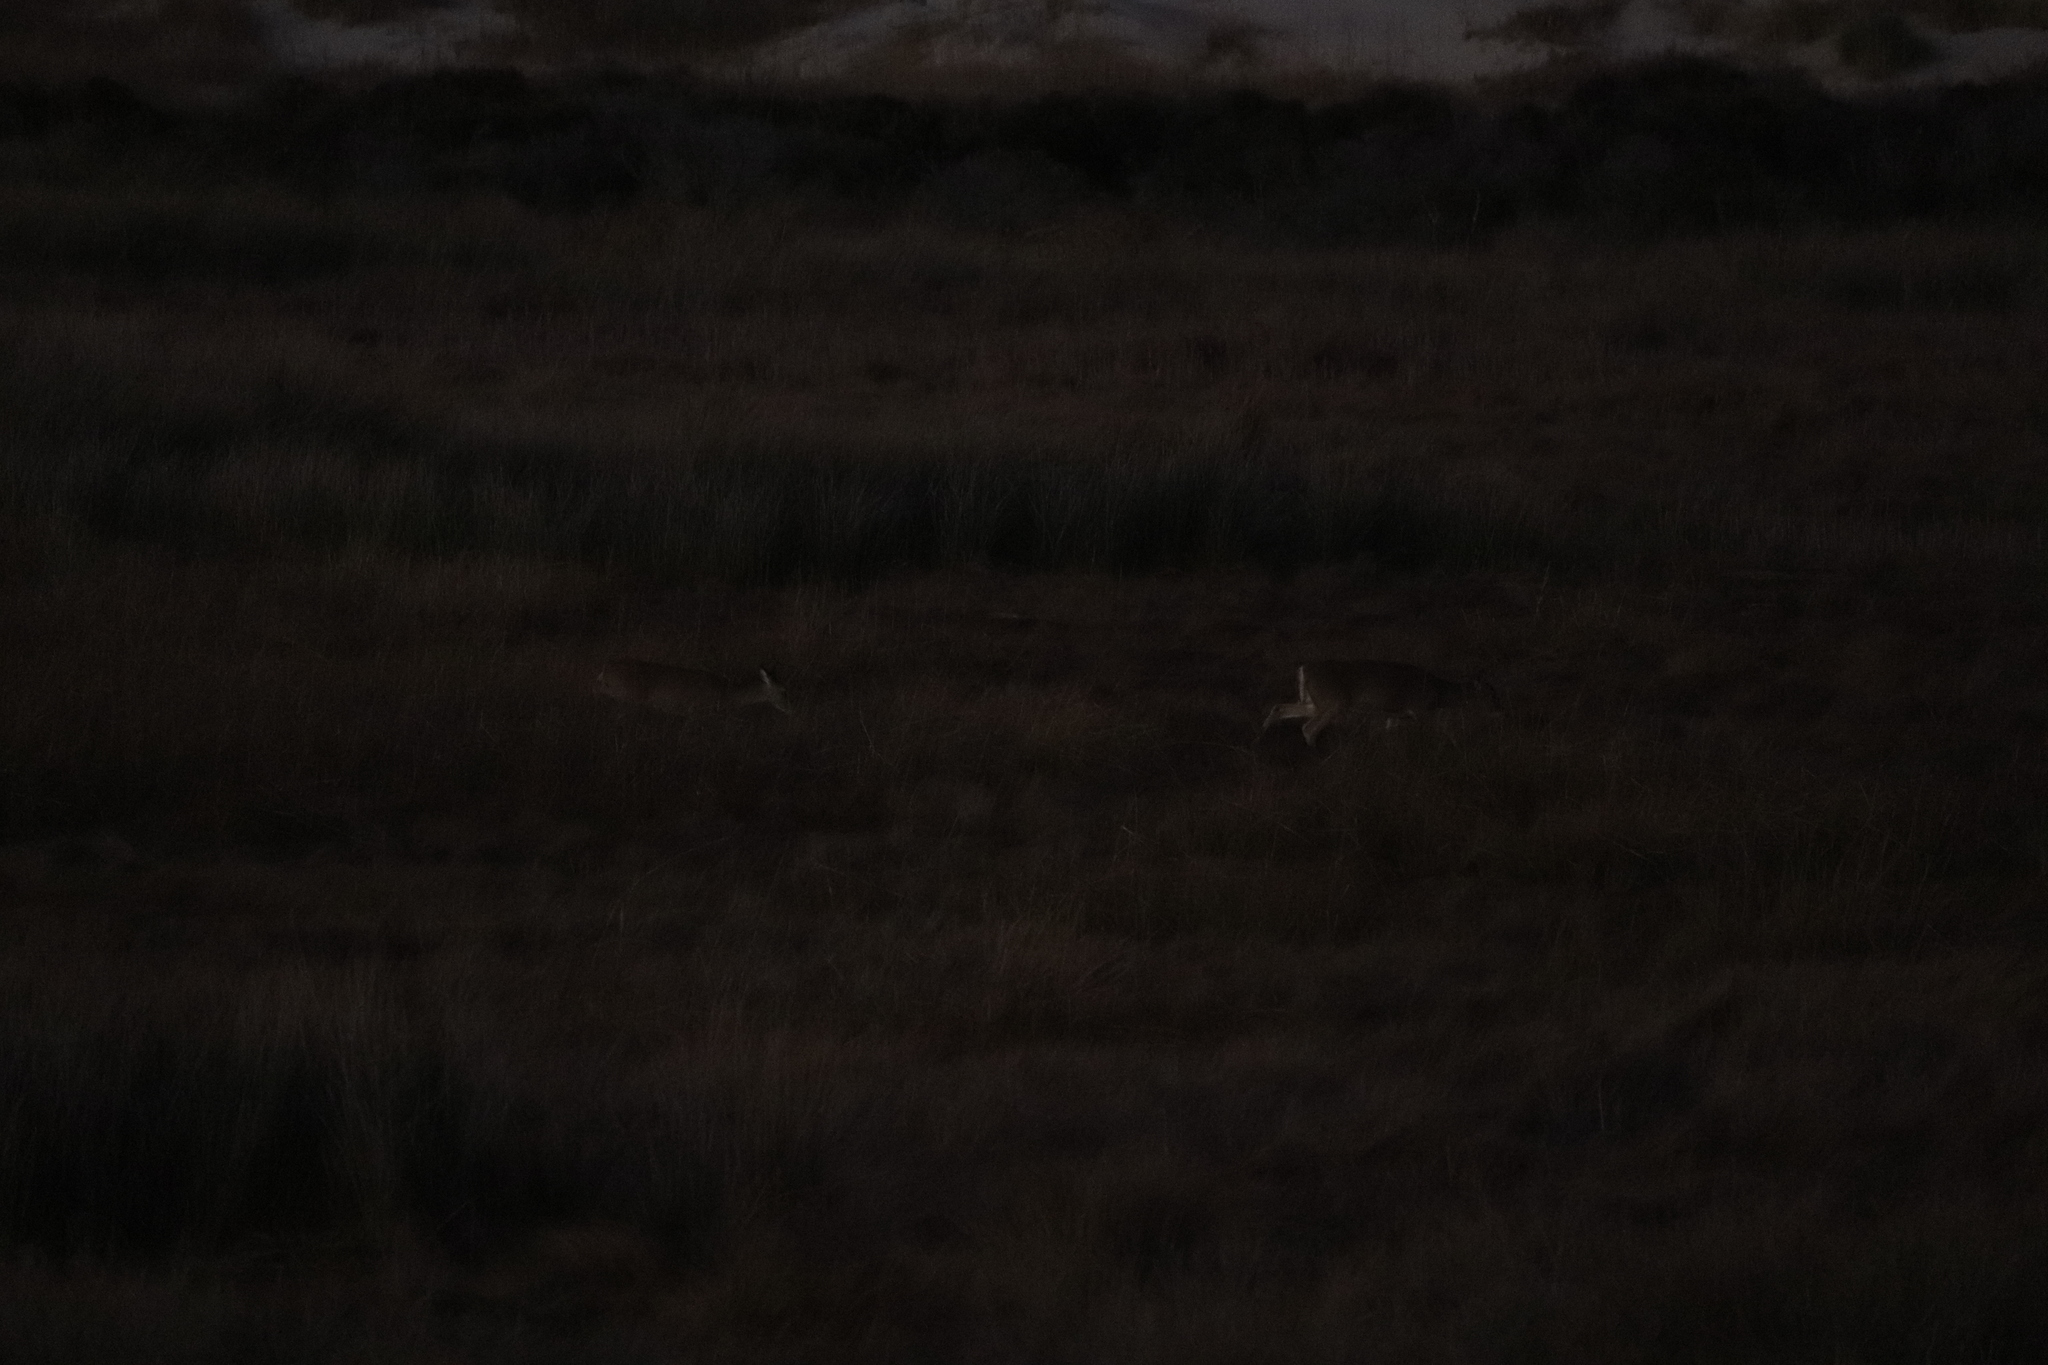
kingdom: Animalia
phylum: Chordata
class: Mammalia
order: Artiodactyla
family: Cervidae
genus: Odocoileus
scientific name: Odocoileus virginianus
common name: White-tailed deer
